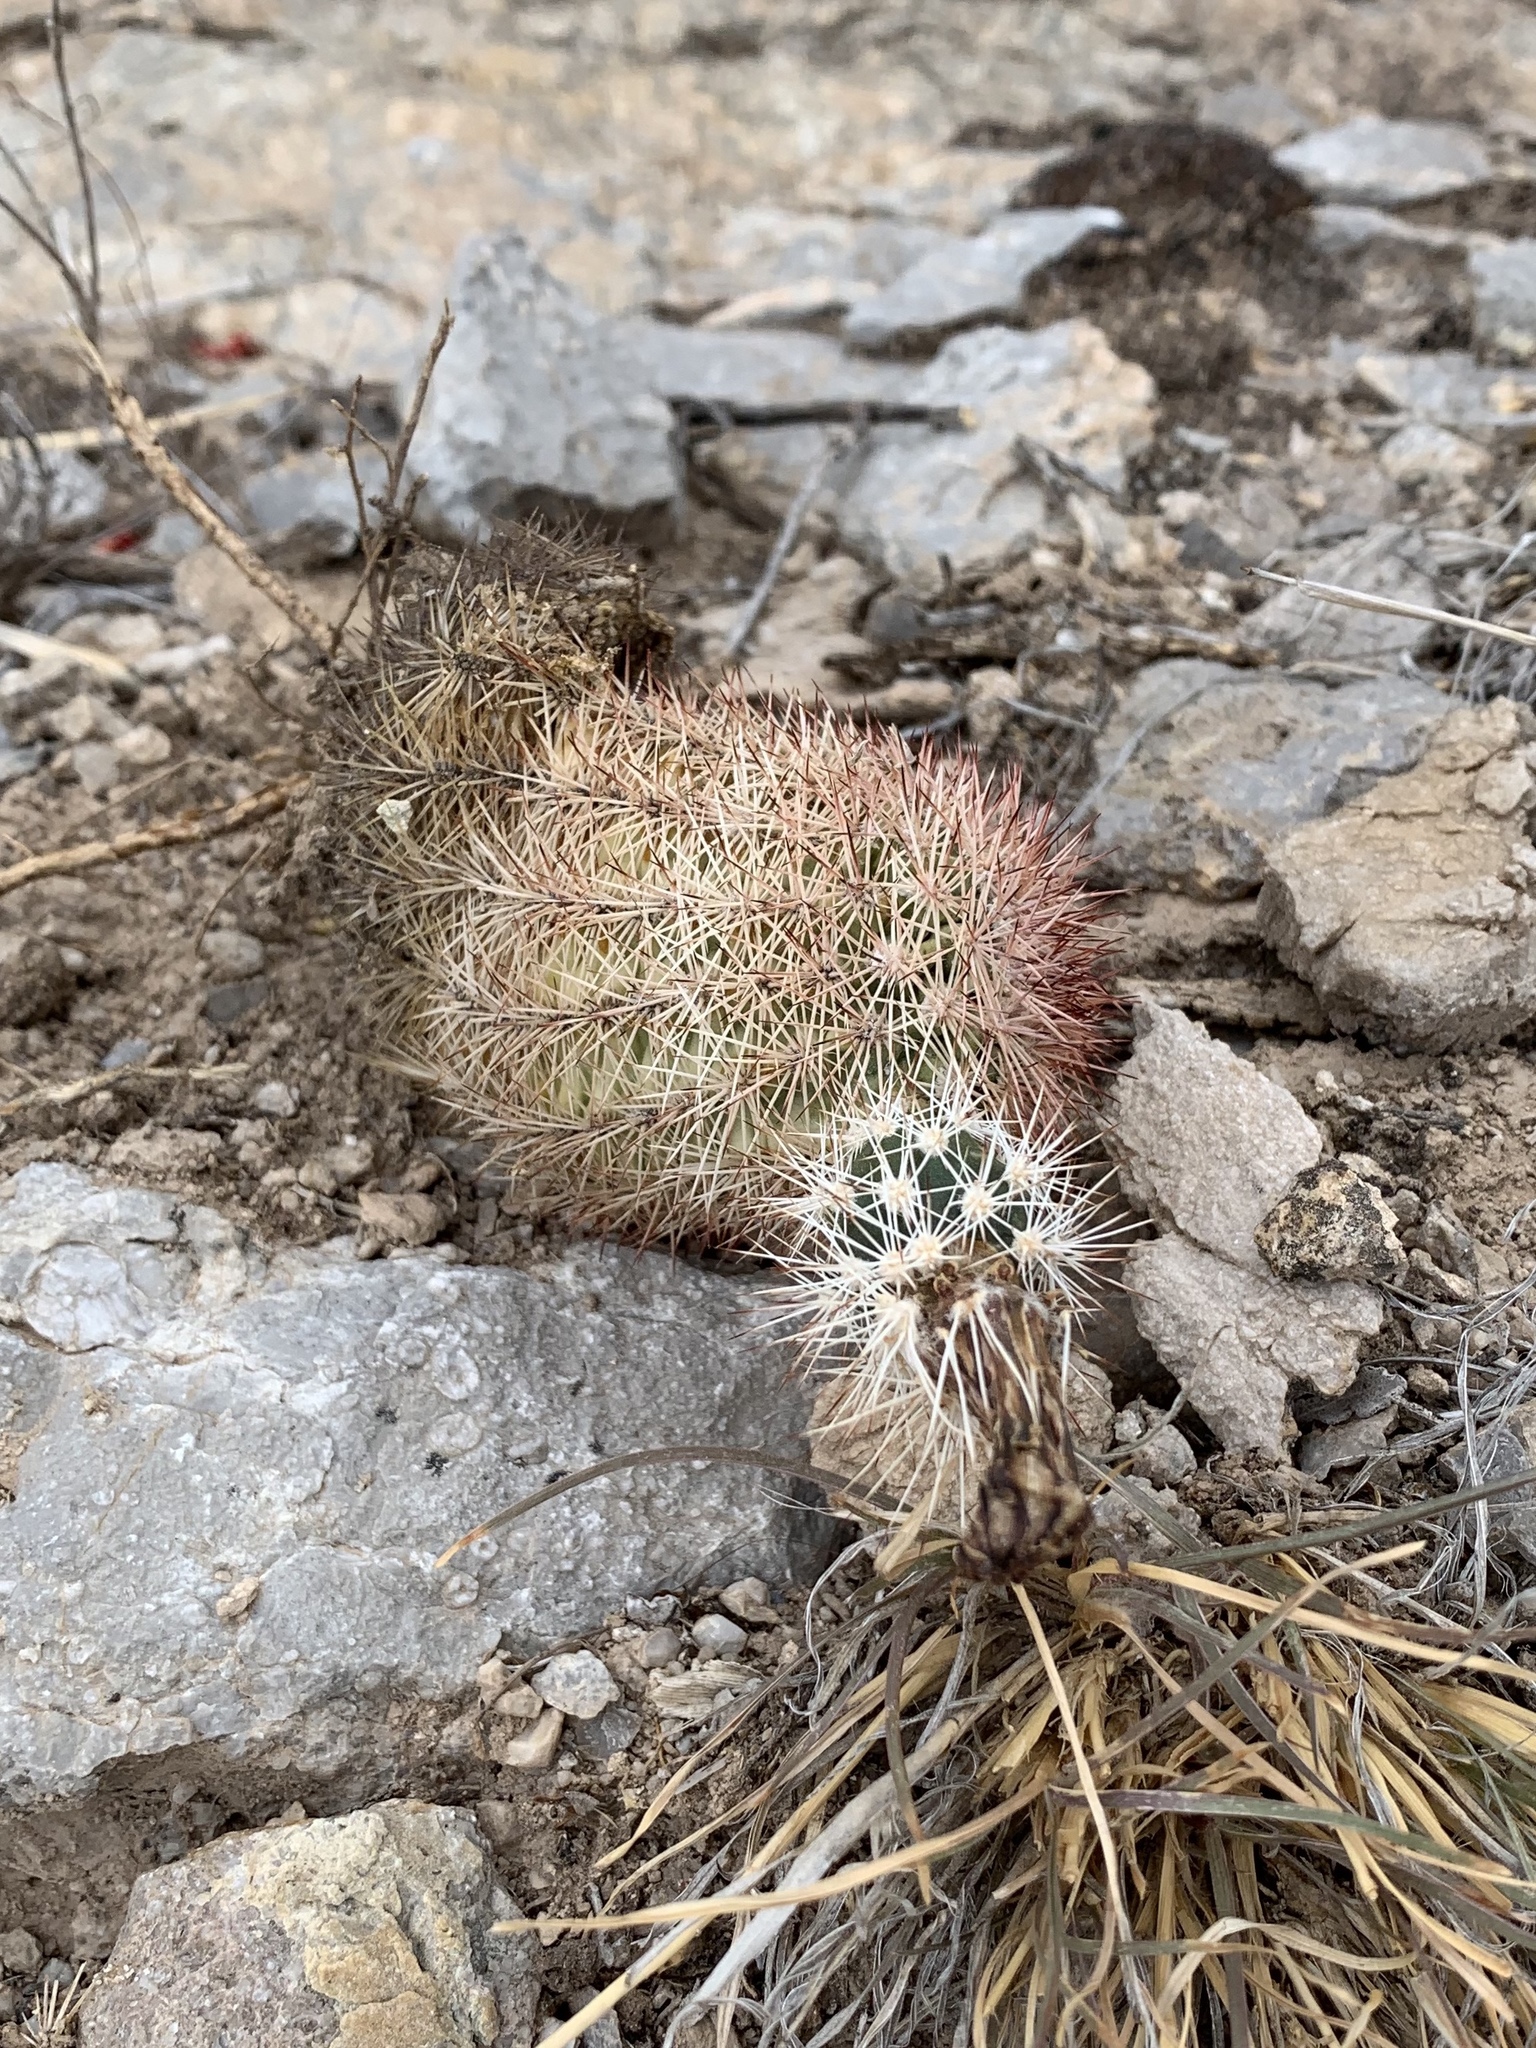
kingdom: Plantae
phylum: Tracheophyta
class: Magnoliopsida
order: Caryophyllales
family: Cactaceae
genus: Echinocereus
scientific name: Echinocereus dasyacanthus
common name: Spiny hedgehog cactus
